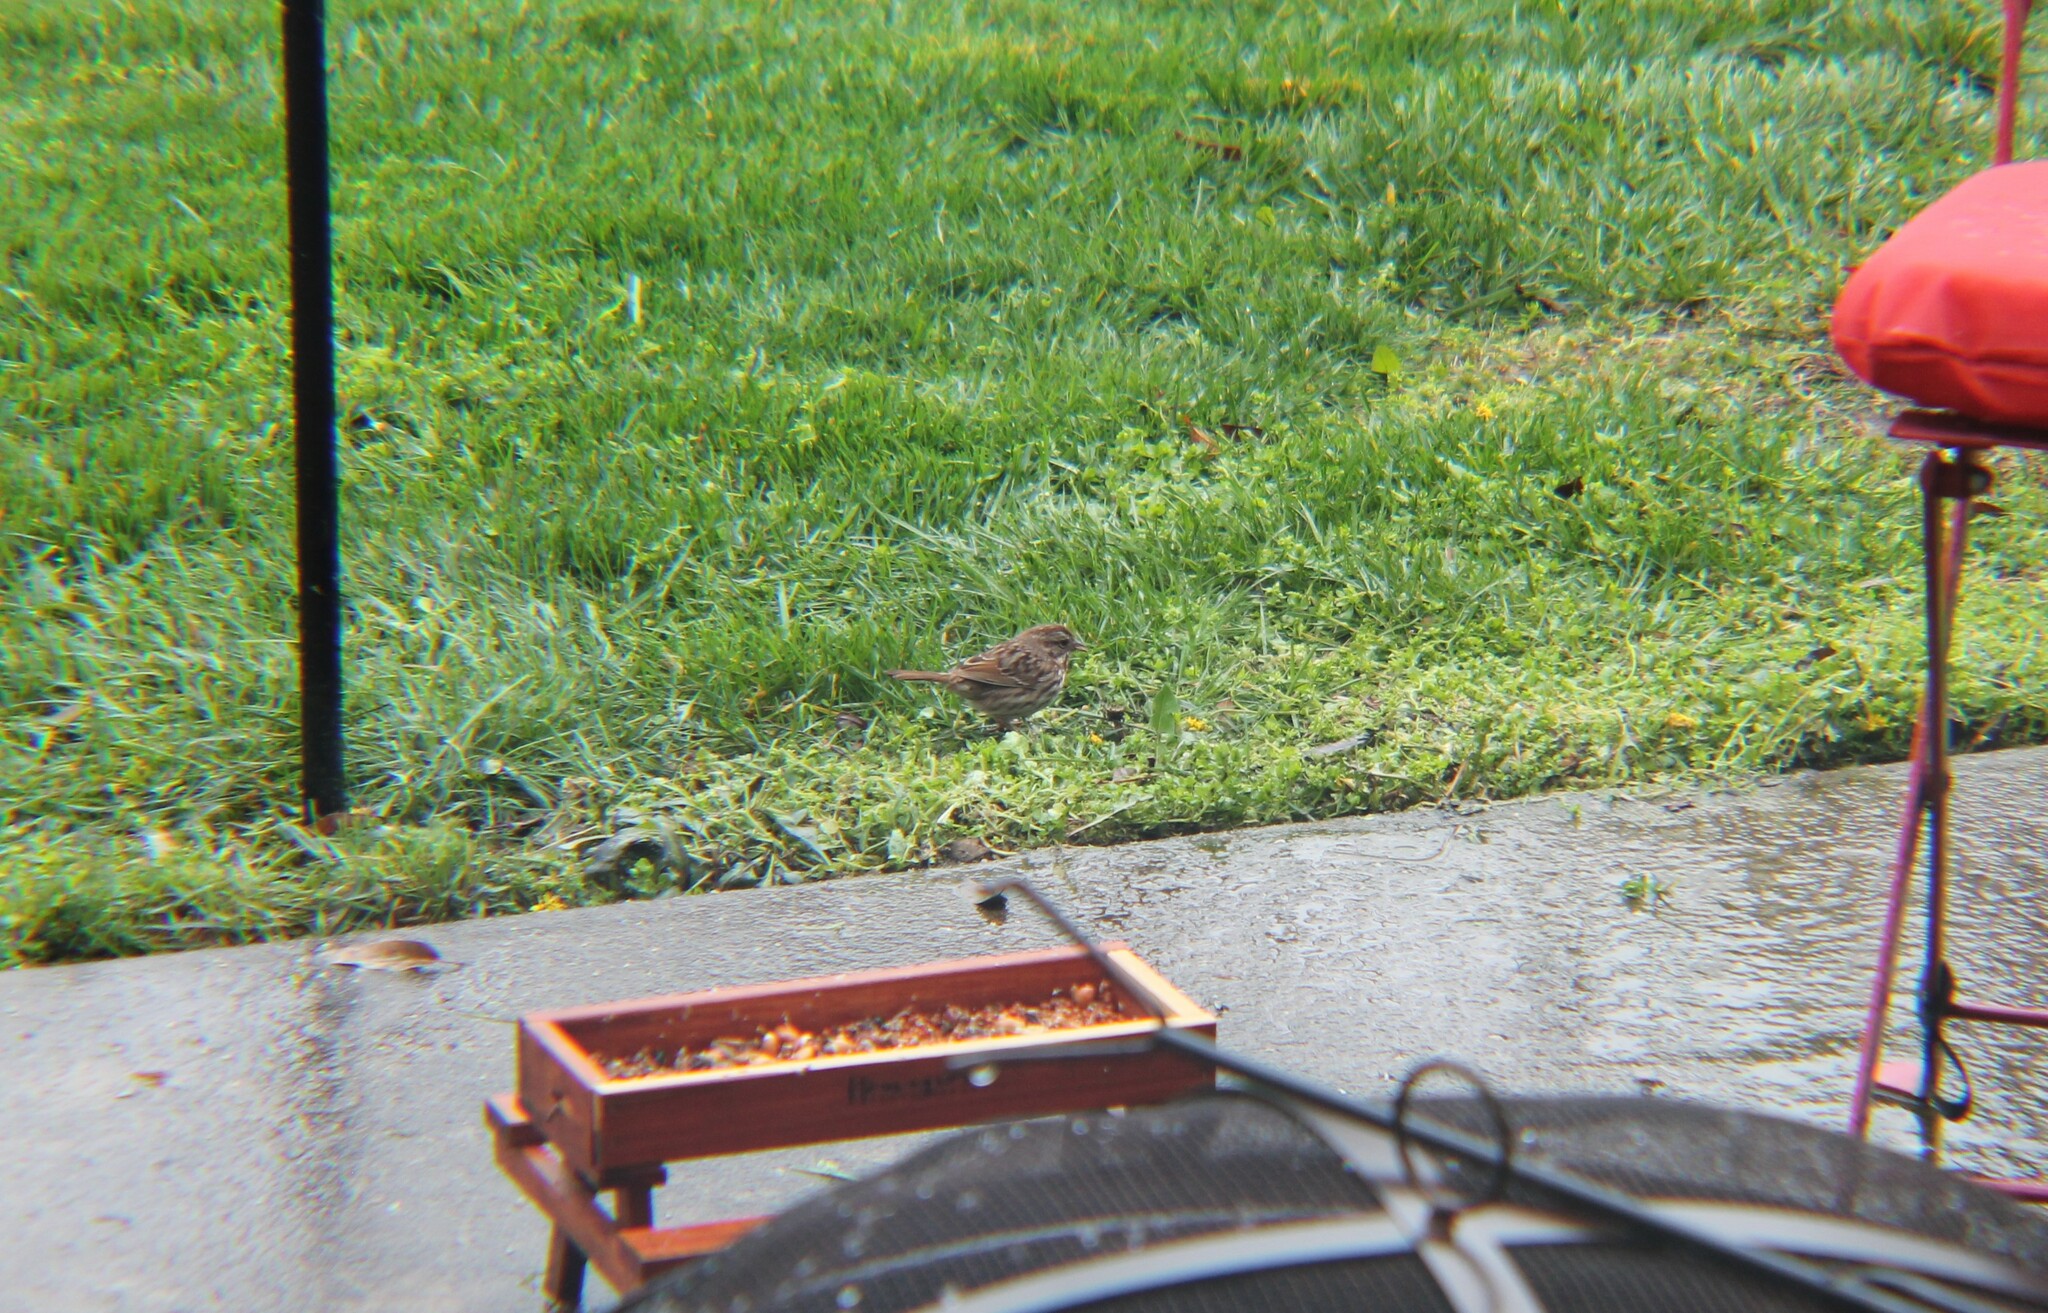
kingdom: Animalia
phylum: Chordata
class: Aves
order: Passeriformes
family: Passerellidae
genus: Melospiza
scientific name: Melospiza melodia
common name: Song sparrow
